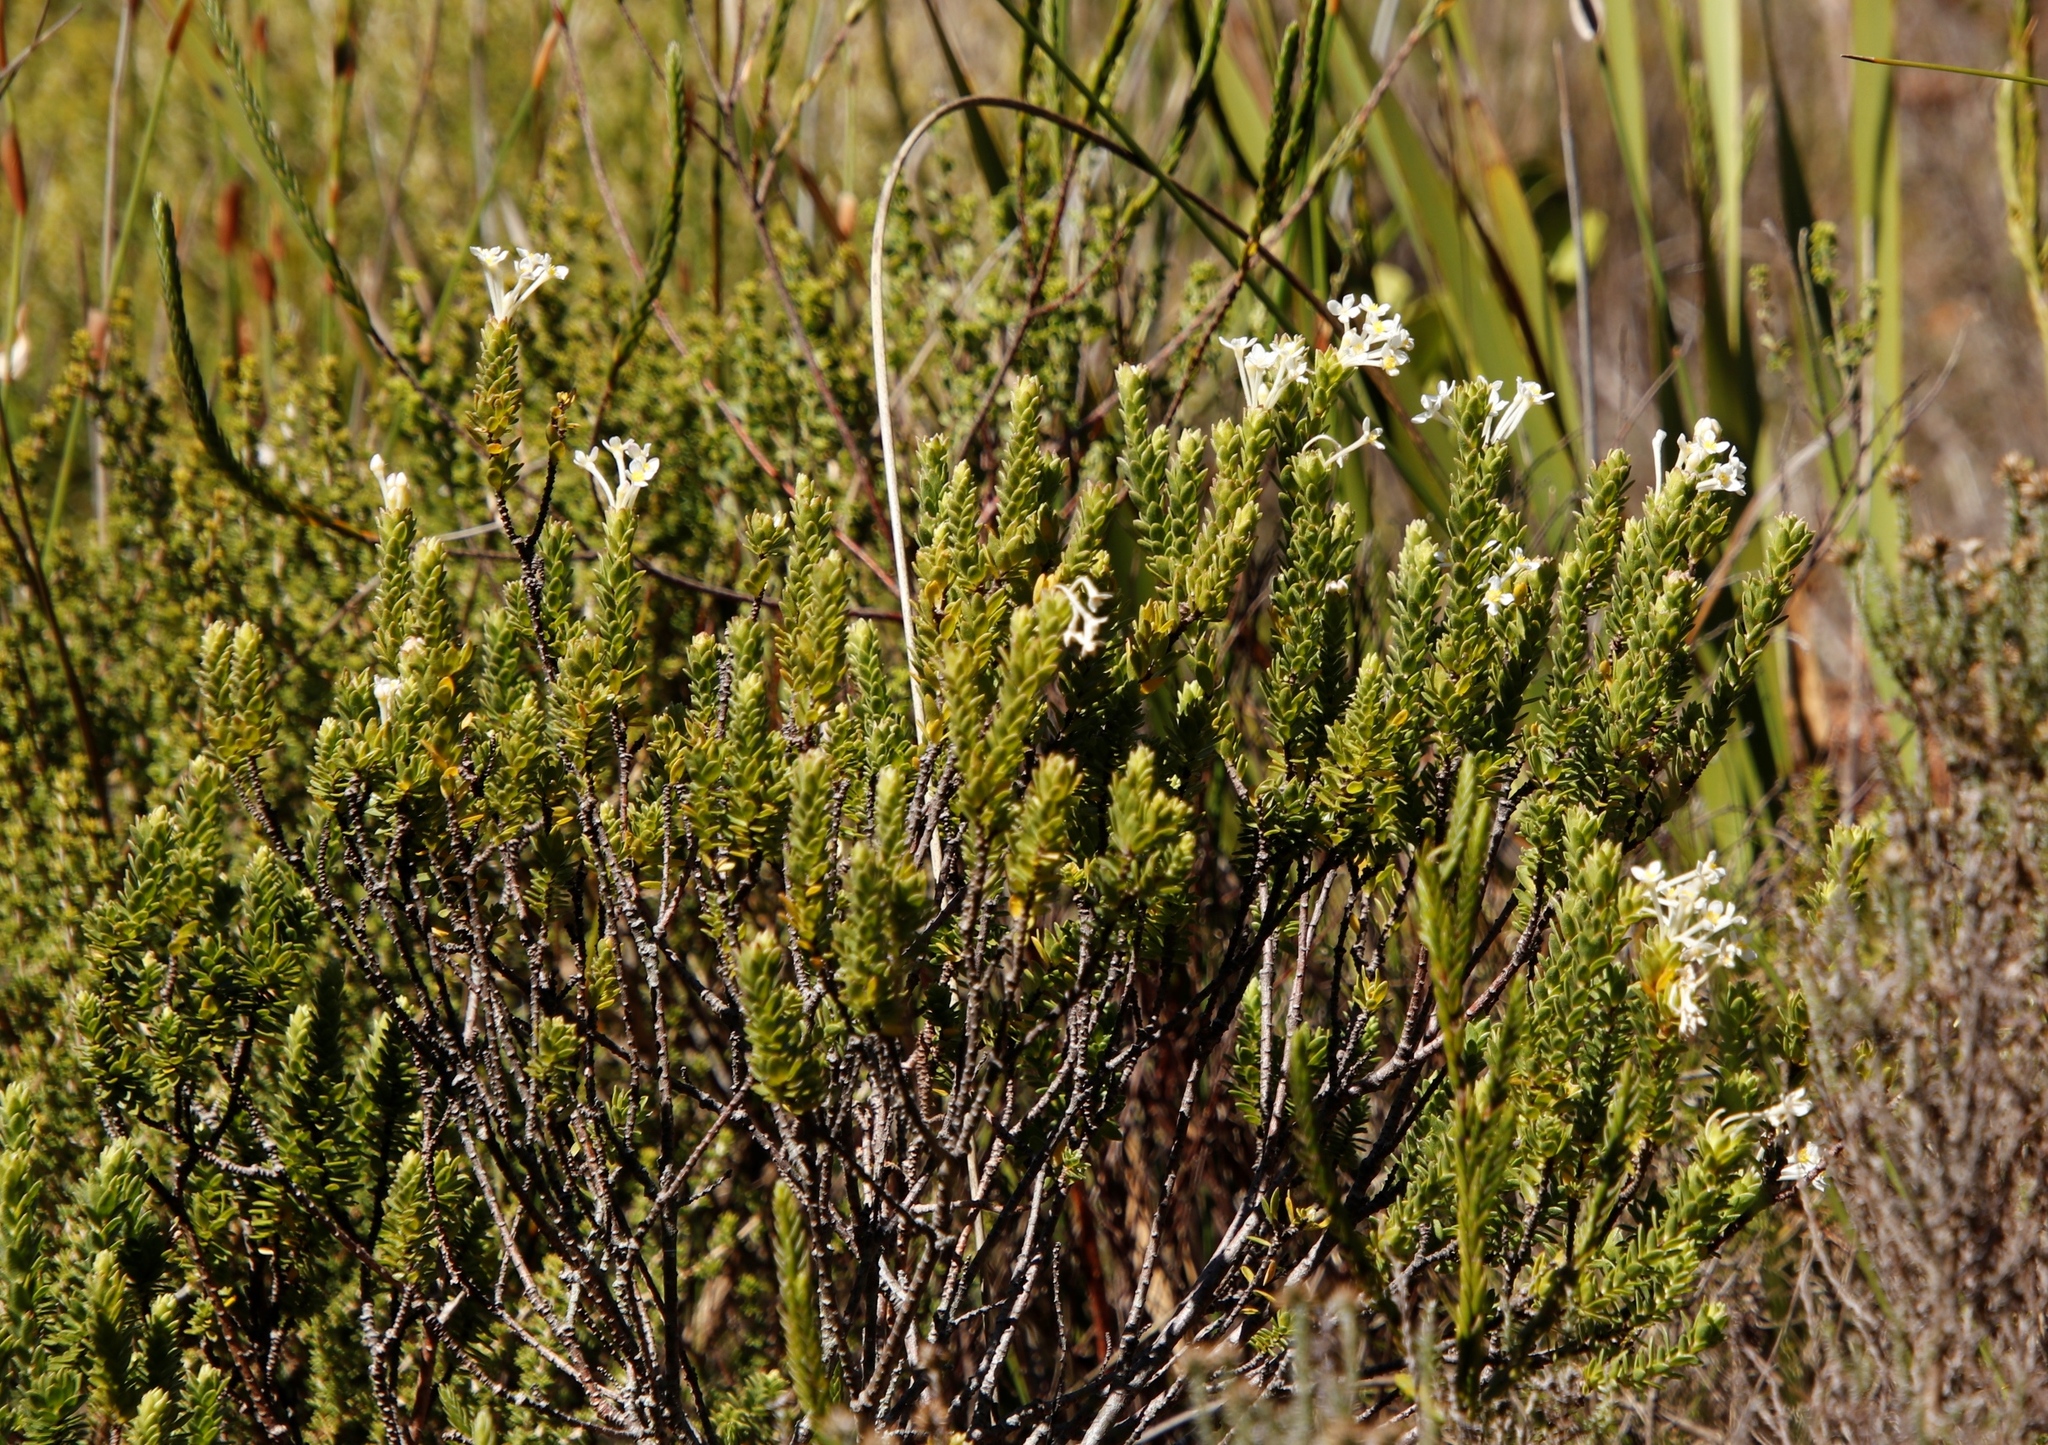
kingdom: Plantae
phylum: Tracheophyta
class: Magnoliopsida
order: Malvales
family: Thymelaeaceae
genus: Gnidia
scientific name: Gnidia tomentosa
